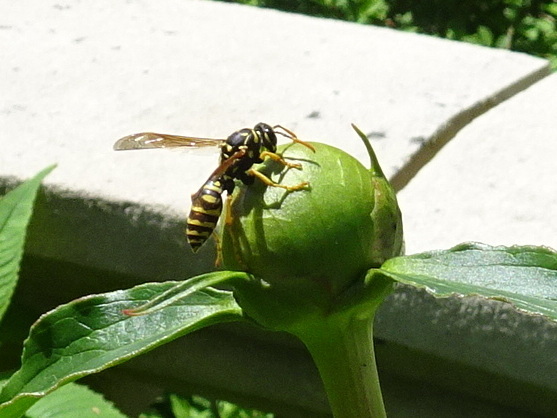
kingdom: Animalia
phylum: Arthropoda
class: Insecta
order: Hymenoptera
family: Eumenidae
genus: Polistes
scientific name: Polistes dominula
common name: Paper wasp
